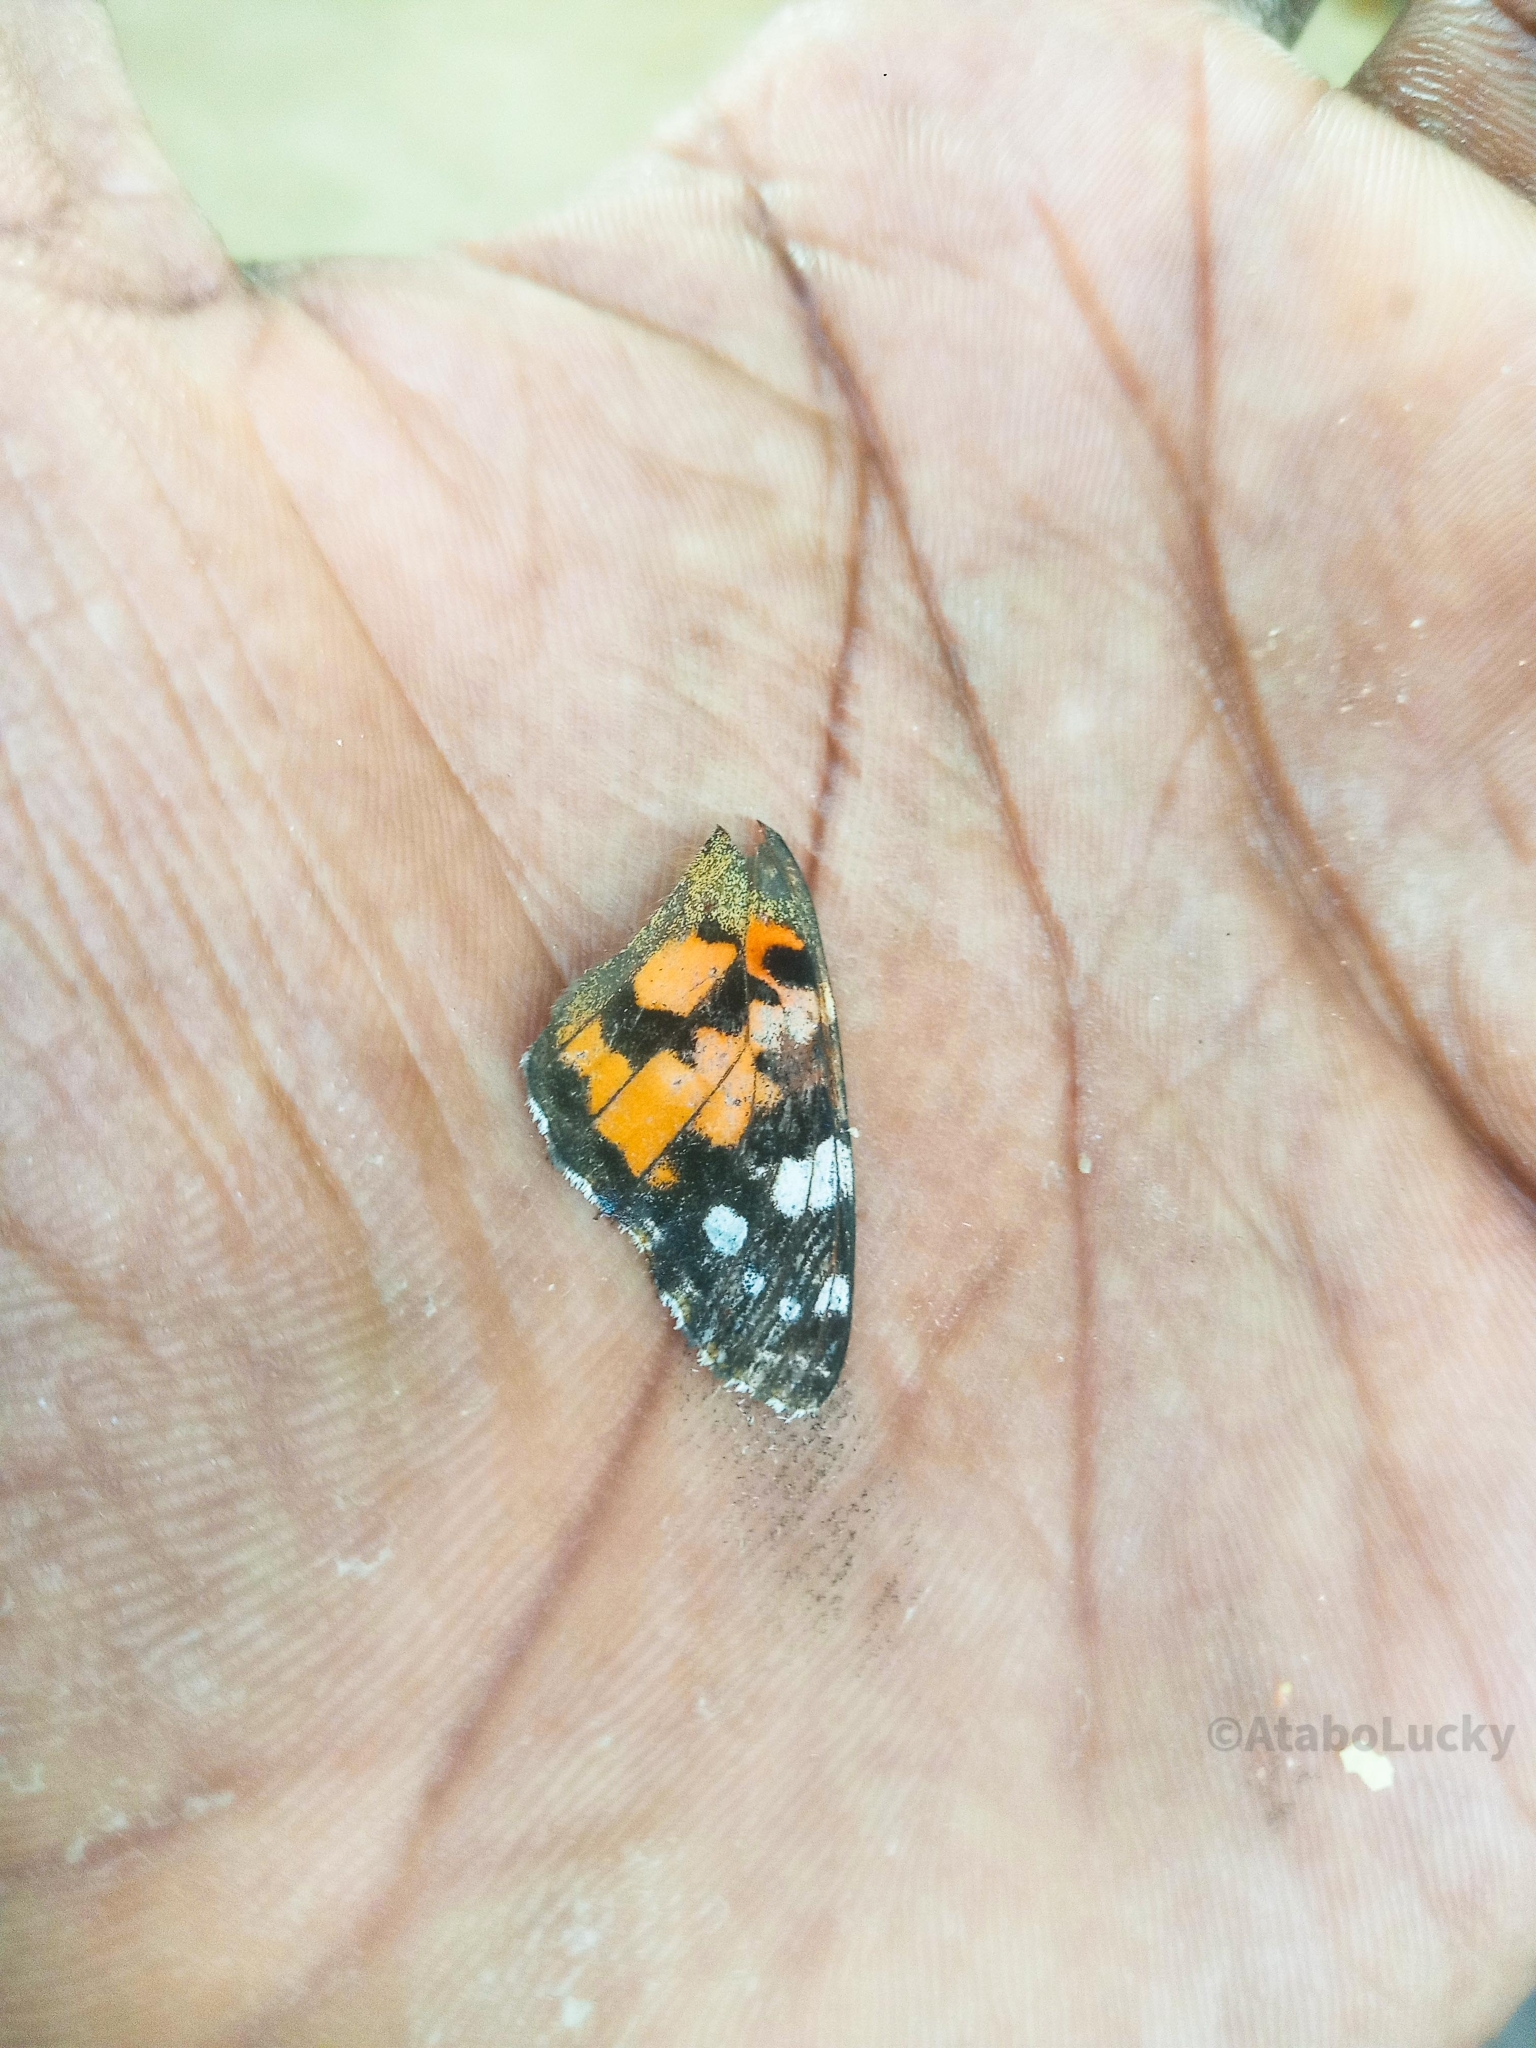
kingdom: Animalia
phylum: Arthropoda
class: Insecta
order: Lepidoptera
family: Nymphalidae
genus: Vanessa
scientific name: Vanessa cardui
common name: Painted lady
